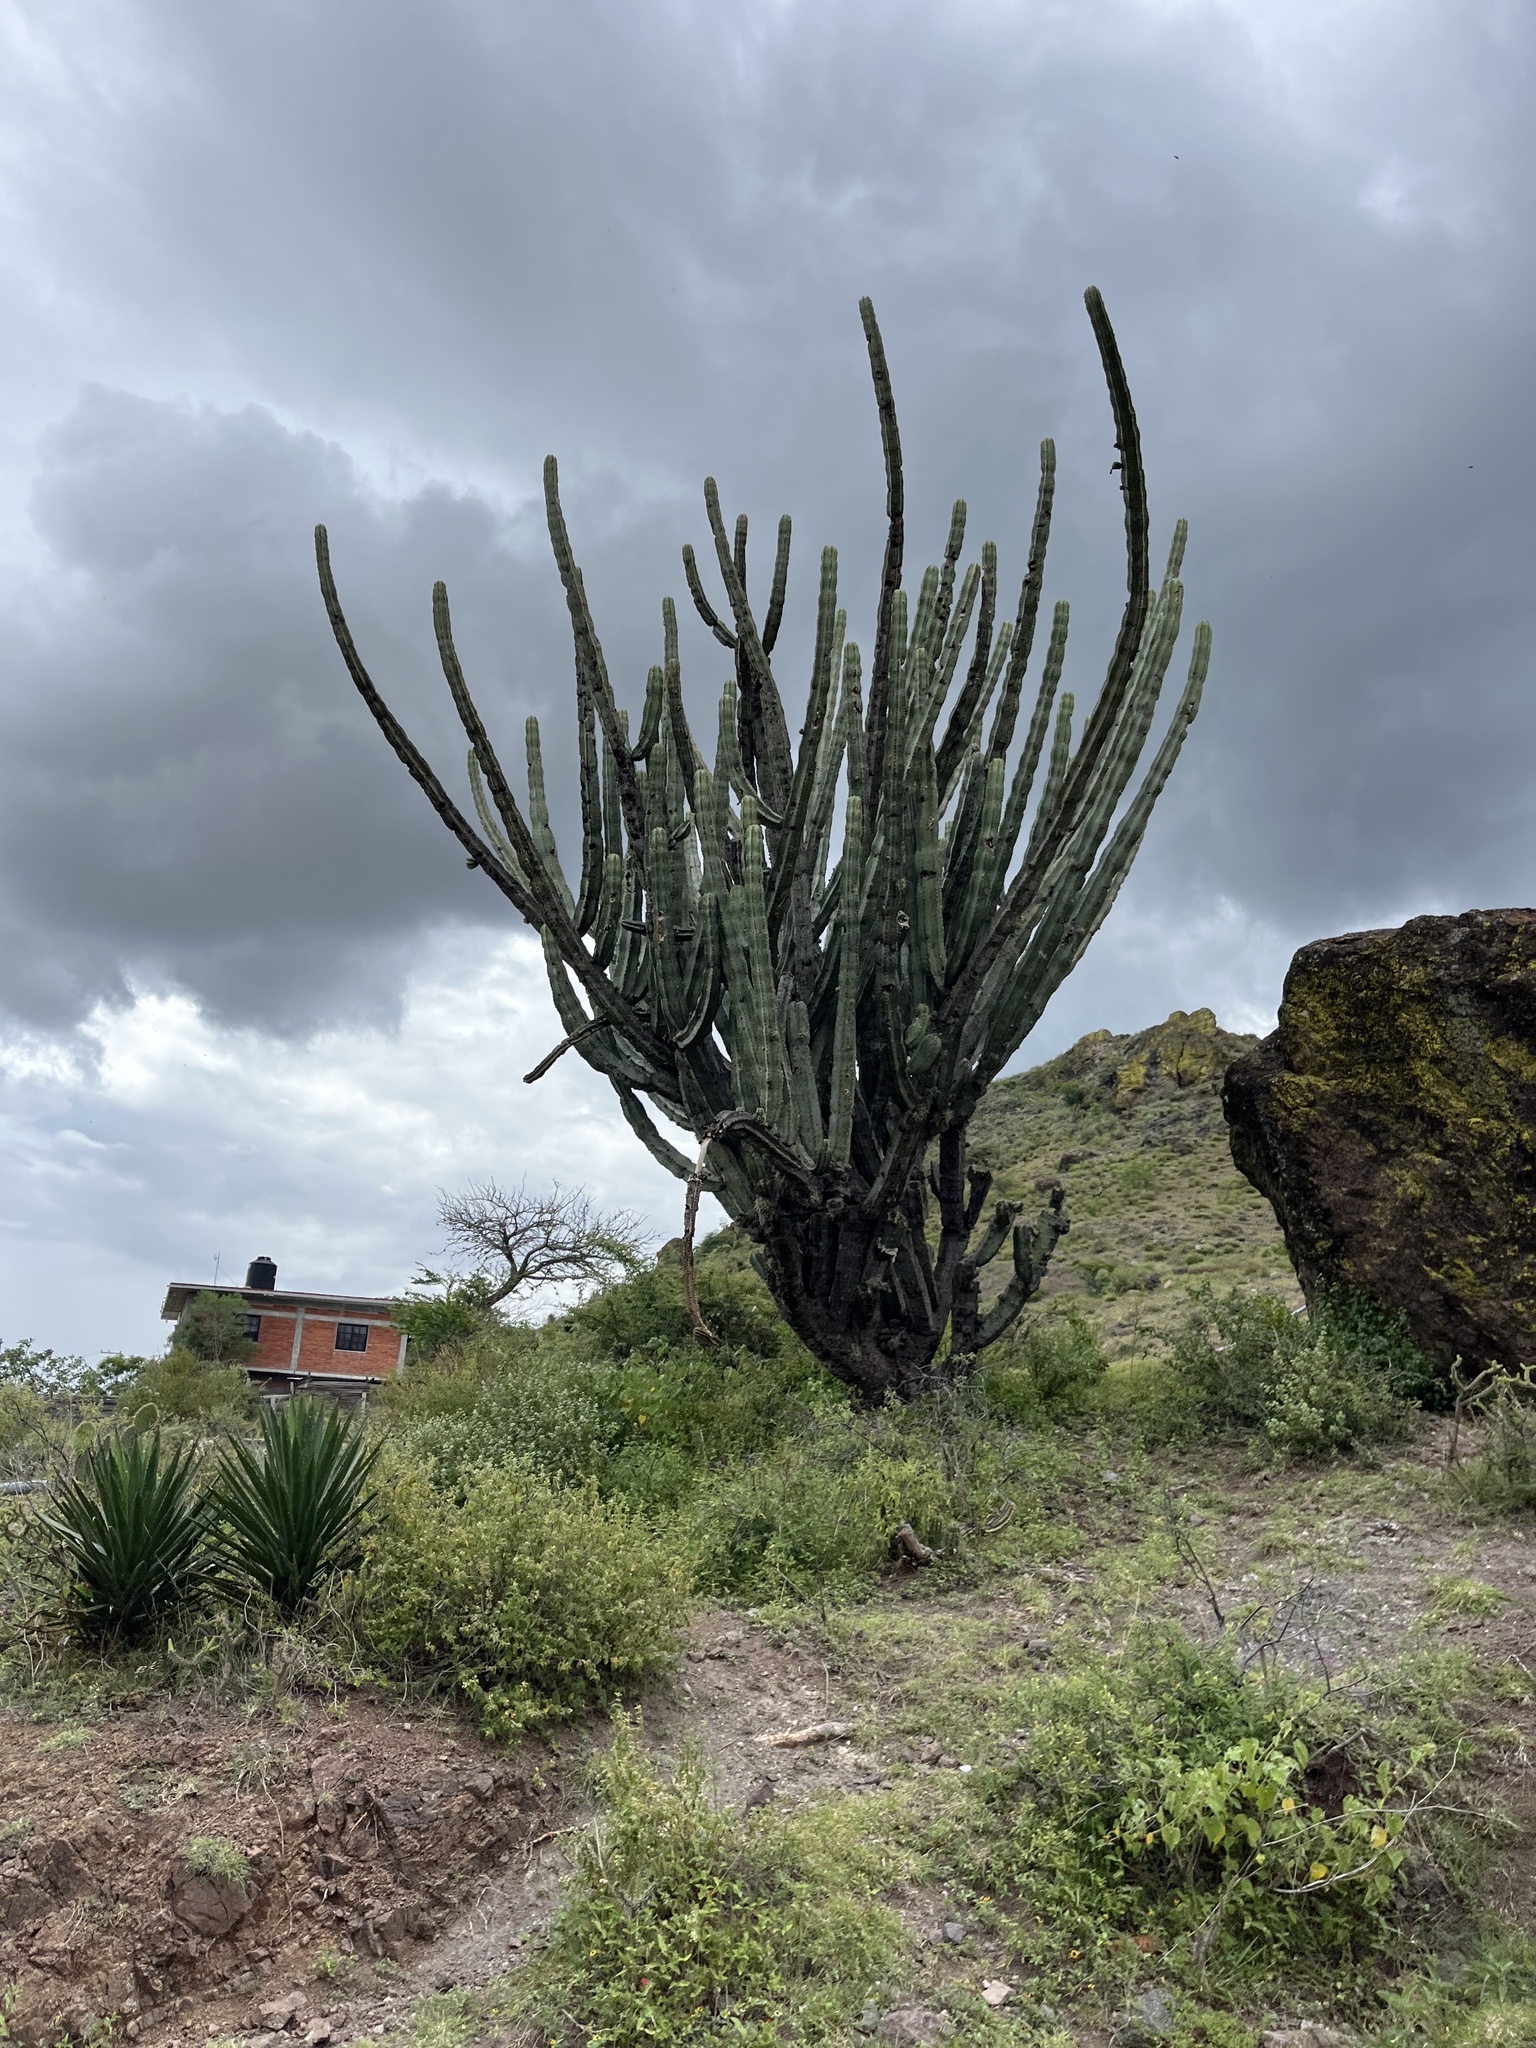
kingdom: Plantae
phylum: Tracheophyta
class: Magnoliopsida
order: Caryophyllales
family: Cactaceae
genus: Stenocereus
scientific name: Stenocereus pruinosus
